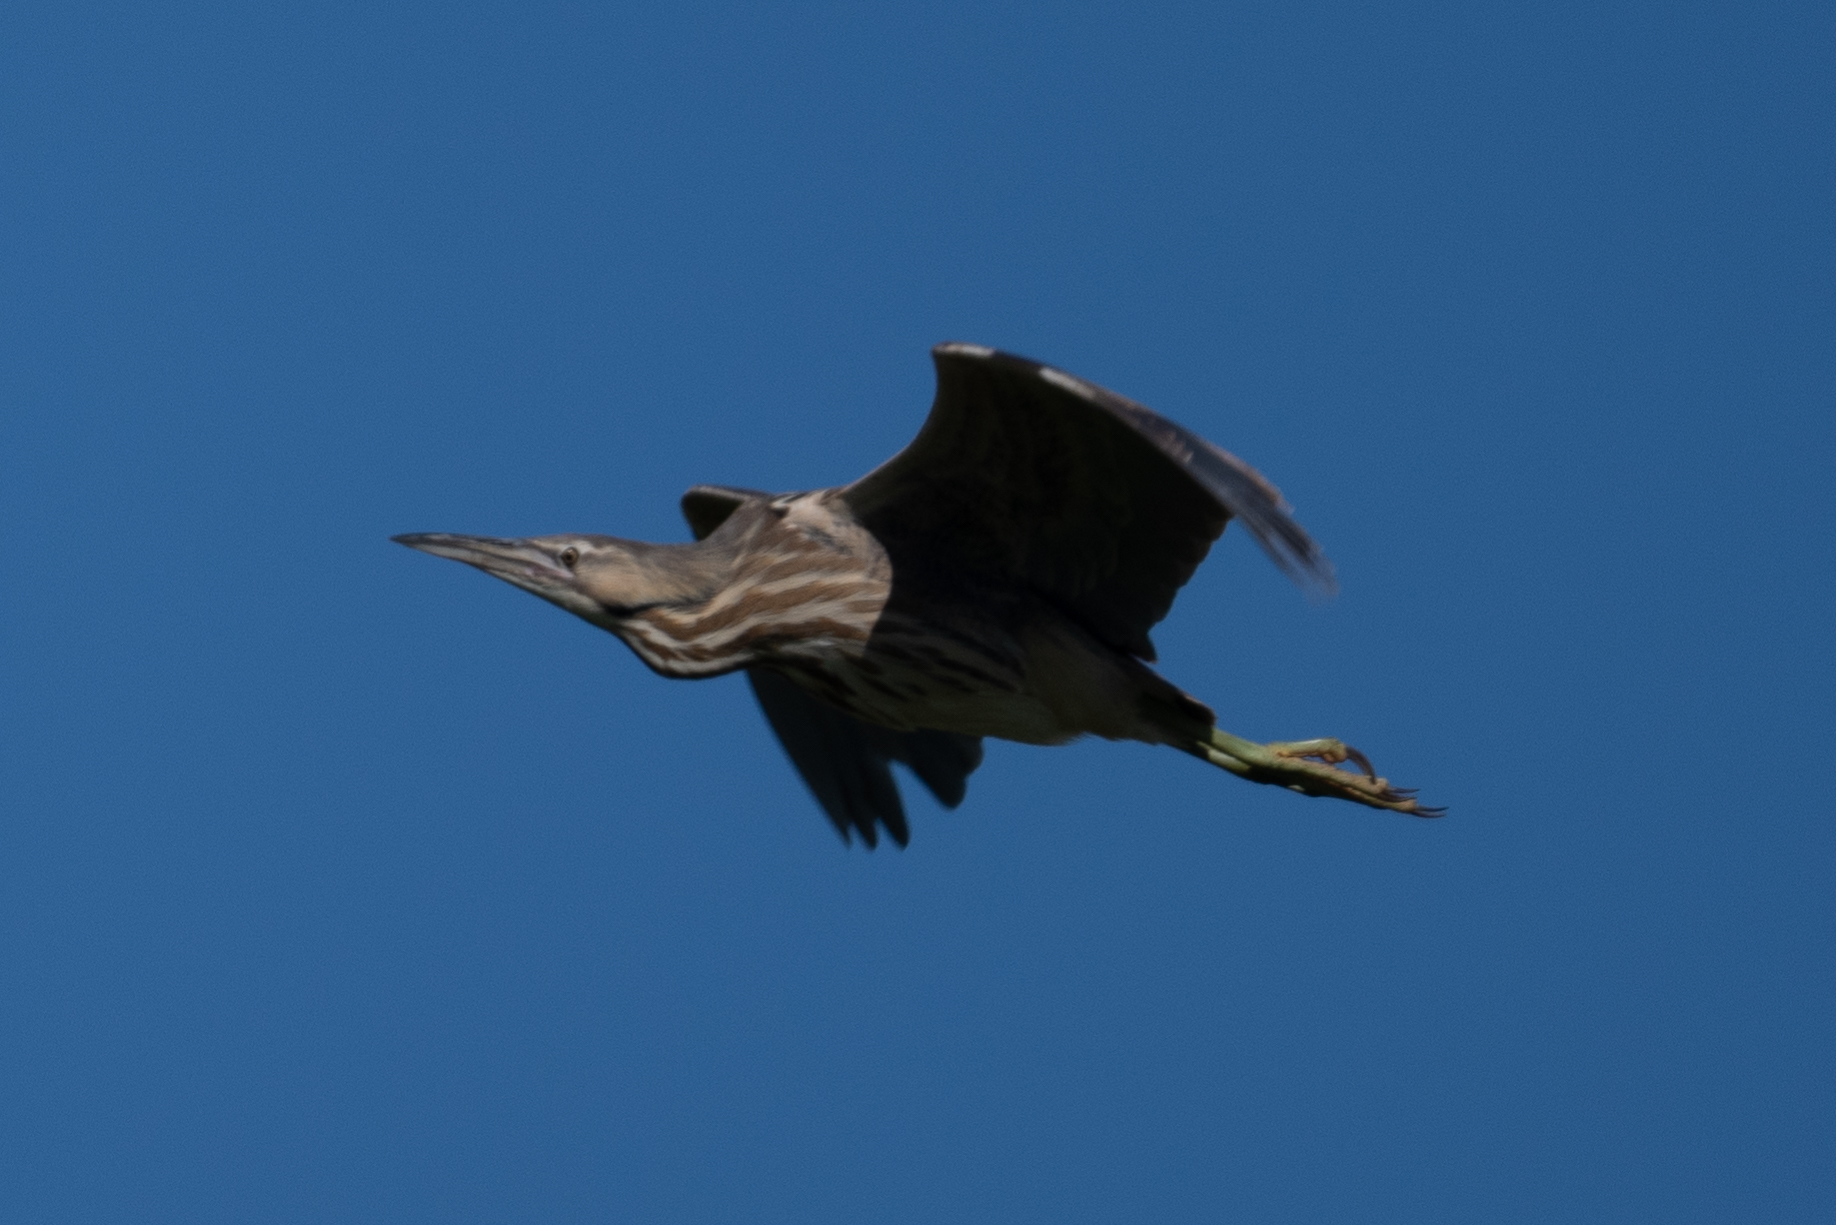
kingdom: Animalia
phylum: Chordata
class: Aves
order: Pelecaniformes
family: Ardeidae
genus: Botaurus
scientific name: Botaurus lentiginosus
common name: American bittern
